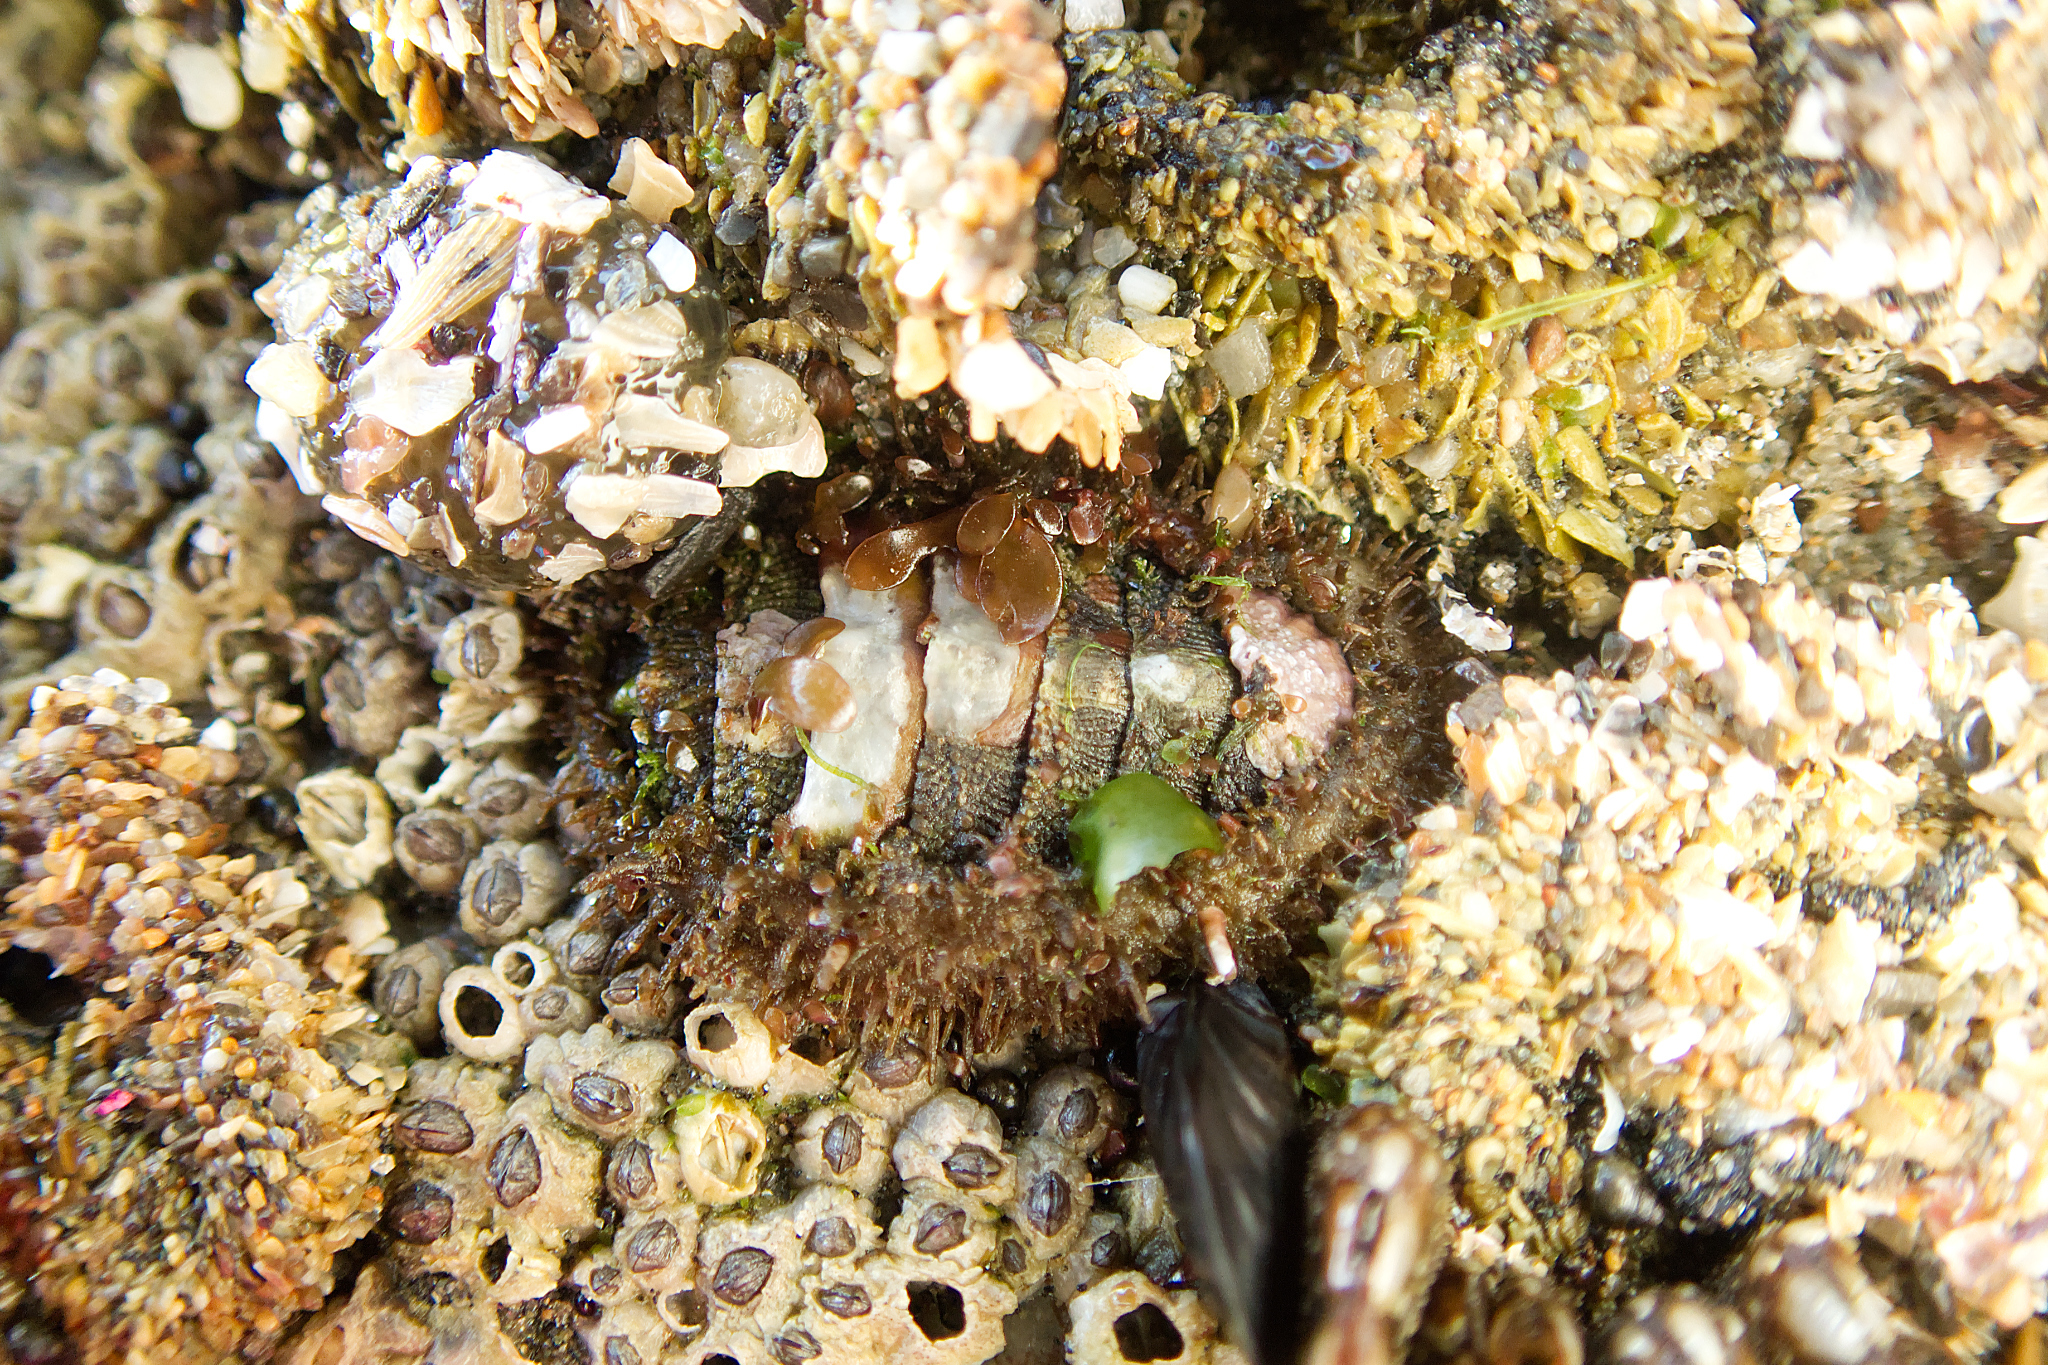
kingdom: Animalia
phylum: Mollusca
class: Polyplacophora
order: Chitonida
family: Mopaliidae
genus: Mopalia
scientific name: Mopalia muscosa
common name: Mossy chiton
